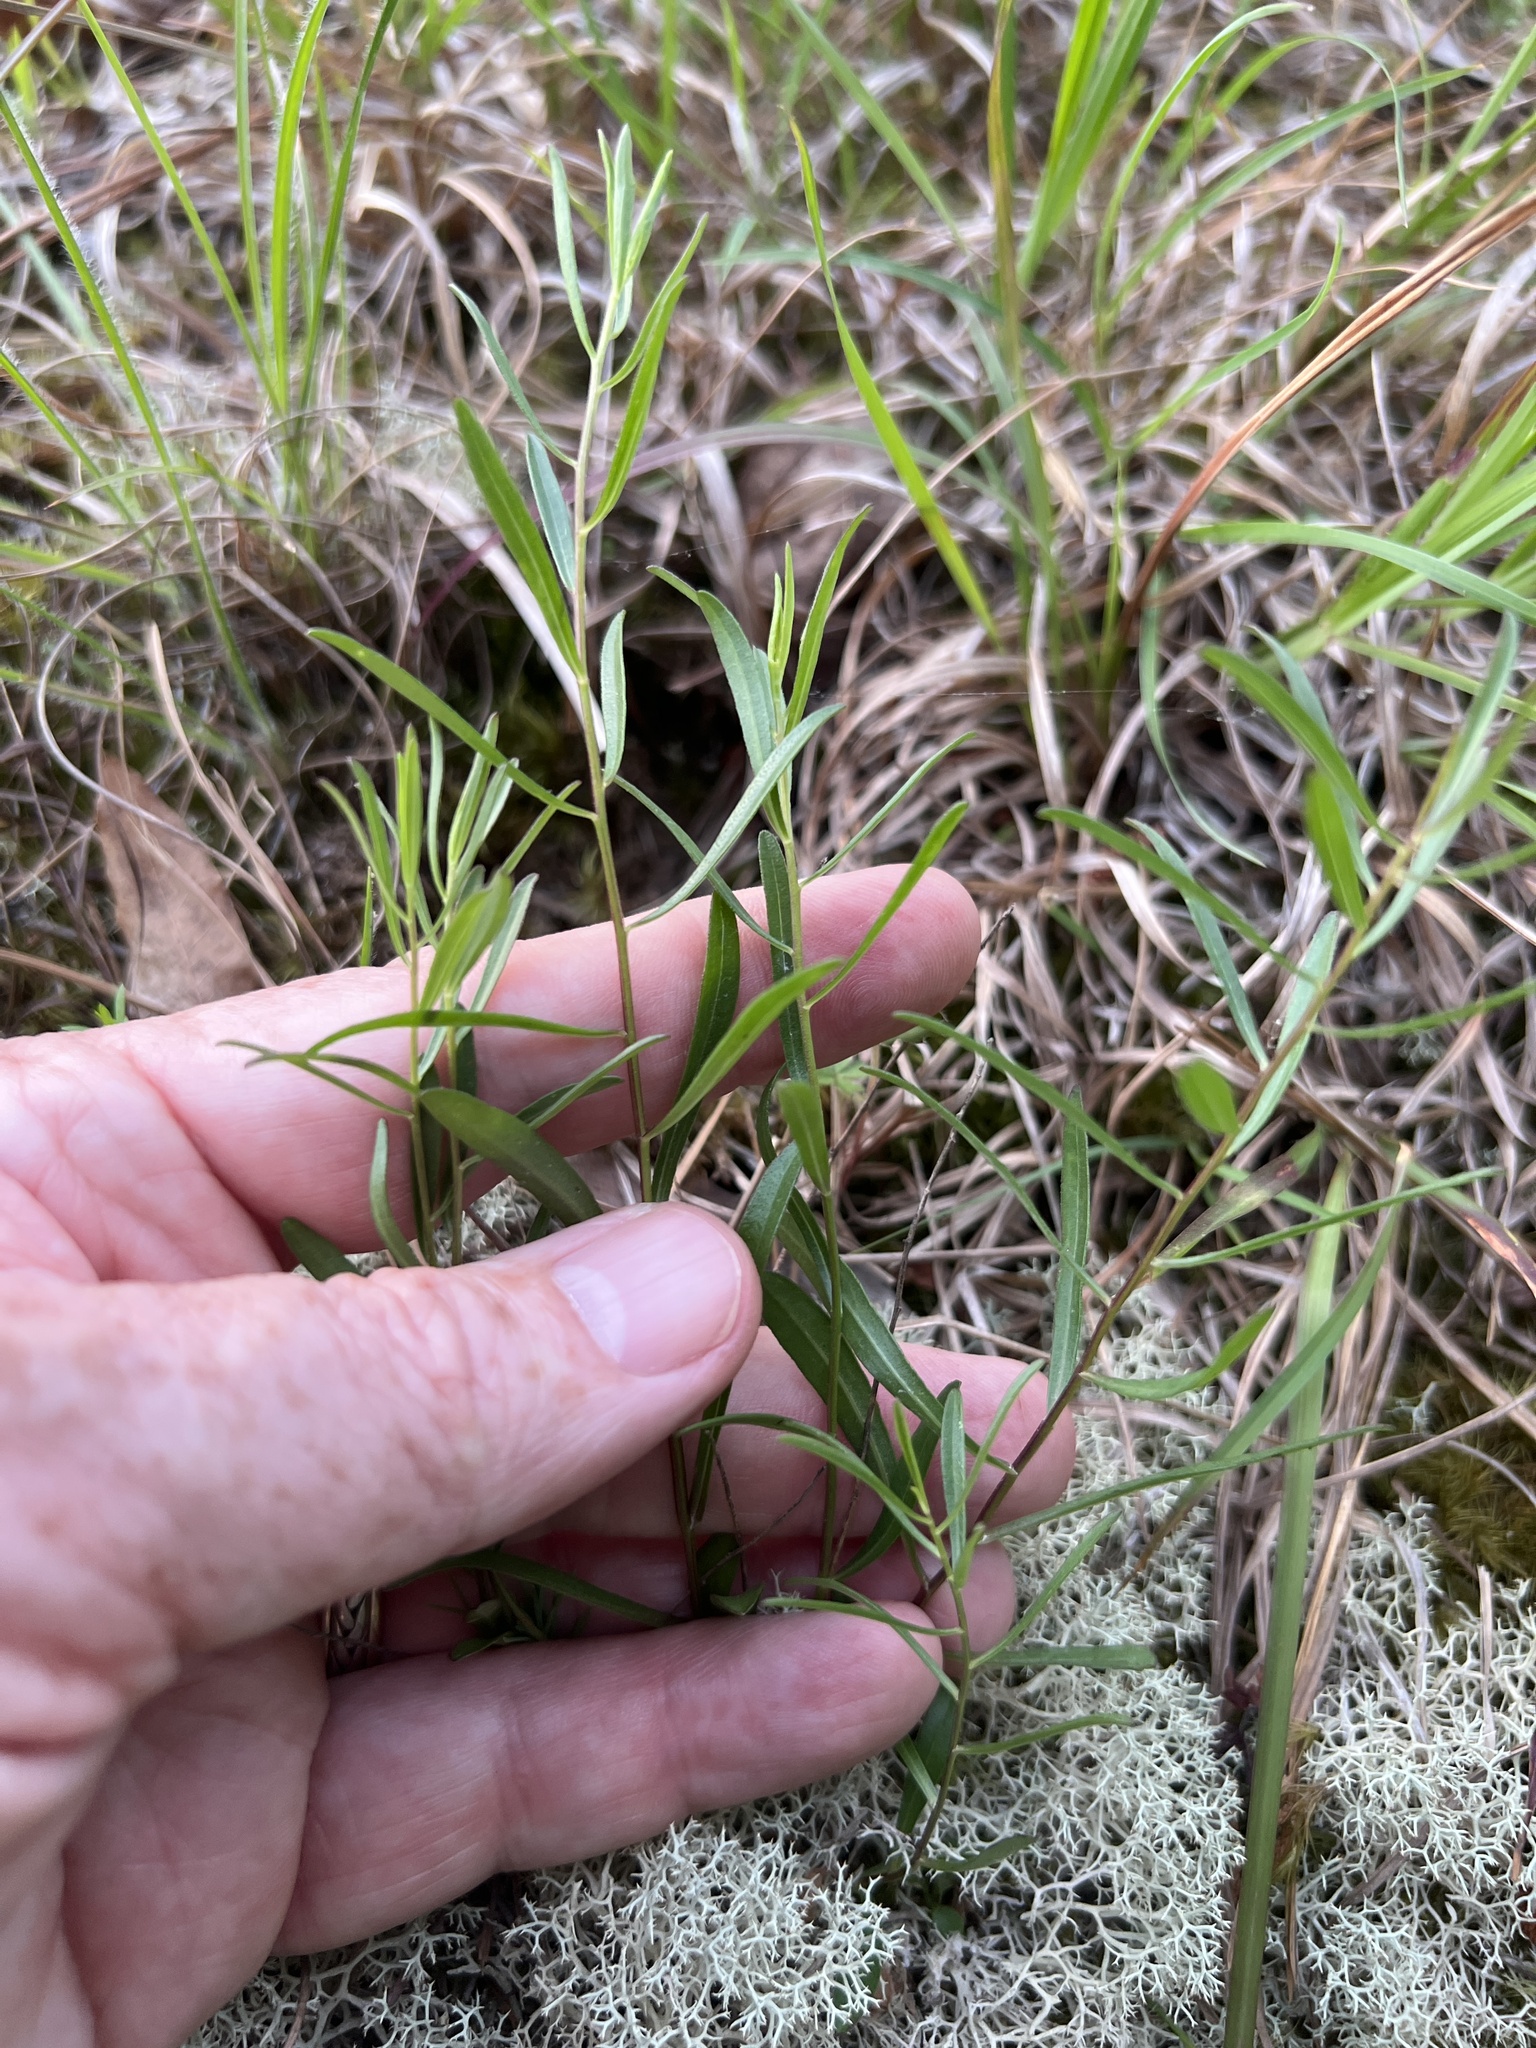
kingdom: Plantae
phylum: Tracheophyta
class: Magnoliopsida
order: Asterales
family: Asteraceae
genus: Sericocarpus
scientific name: Sericocarpus linifolius
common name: Narrow-leaf aster
